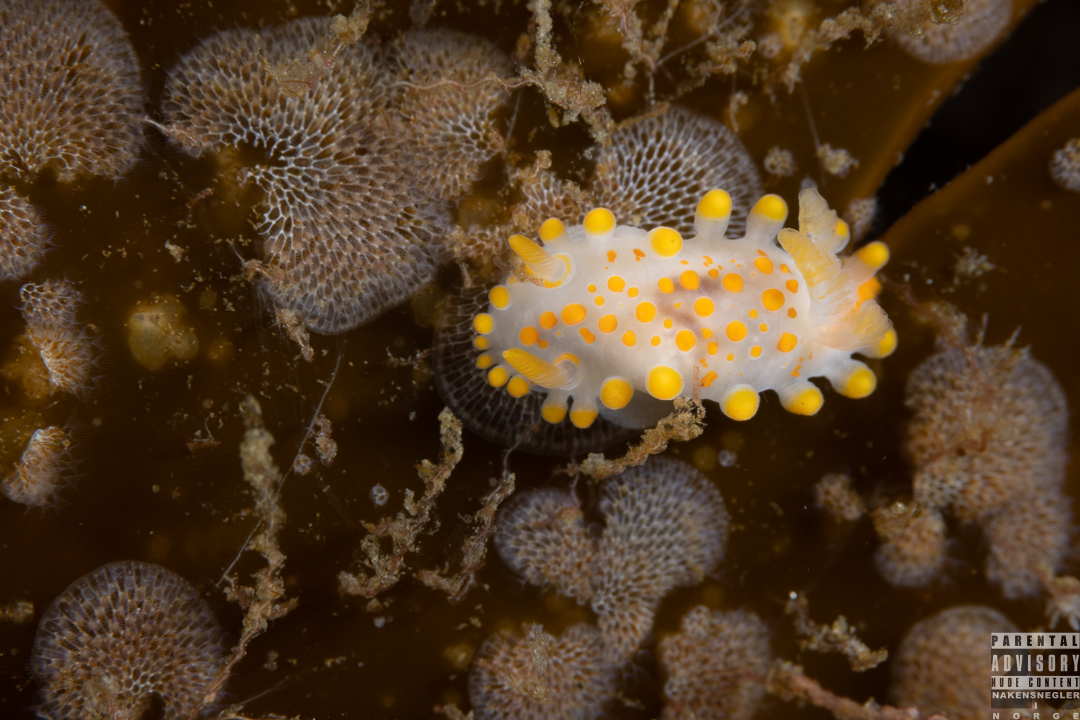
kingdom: Animalia
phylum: Mollusca
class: Gastropoda
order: Nudibranchia
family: Polyceridae
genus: Limacia
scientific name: Limacia clavigera
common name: Orange-clubbed sea slug
